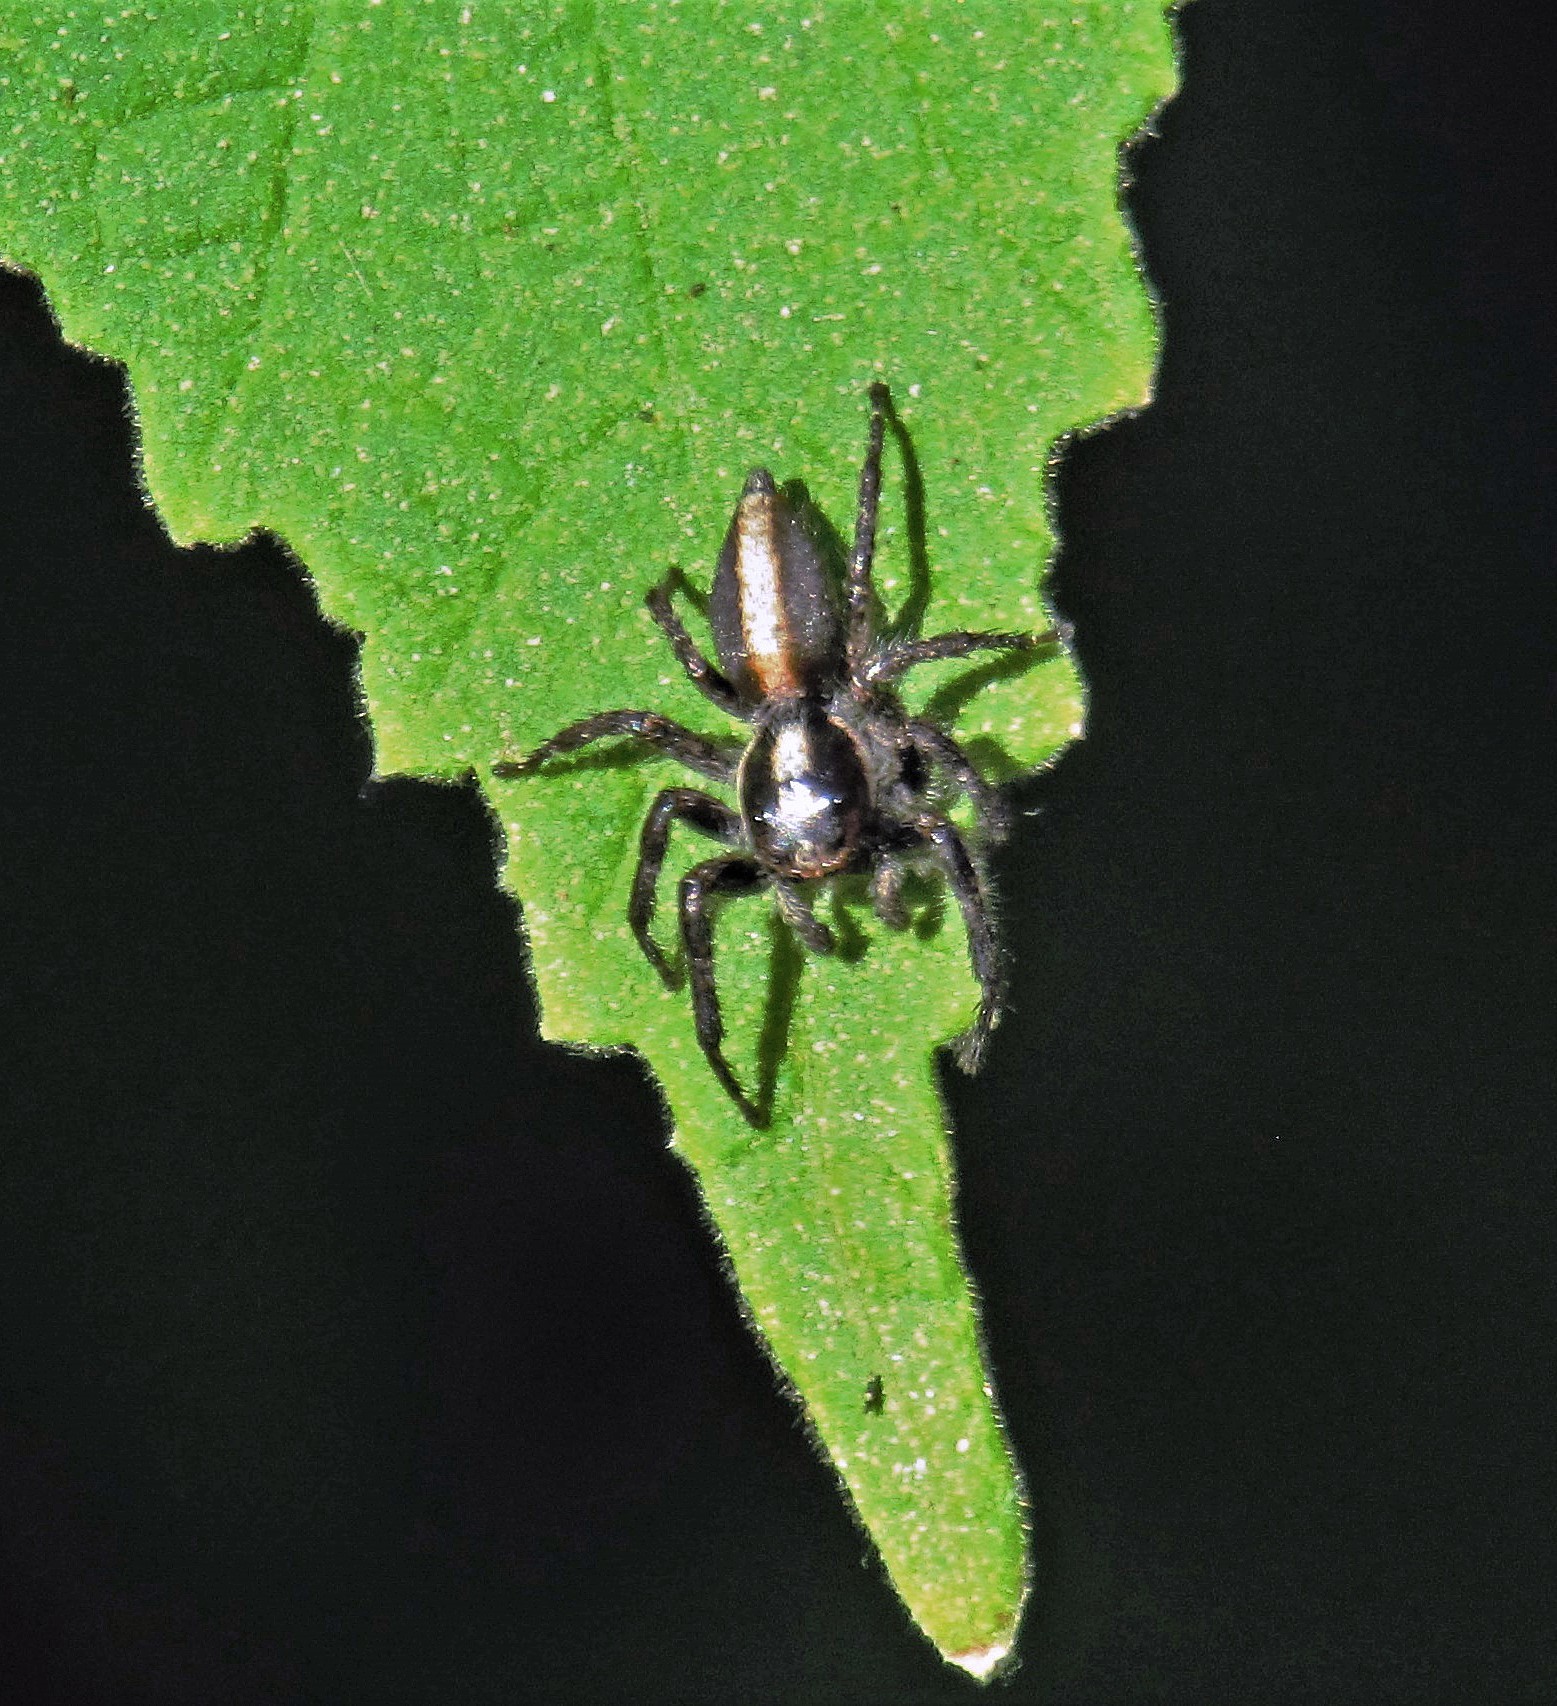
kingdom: Animalia
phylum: Arthropoda
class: Arachnida
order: Araneae
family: Salticidae
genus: Megafreya
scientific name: Megafreya sutrix
